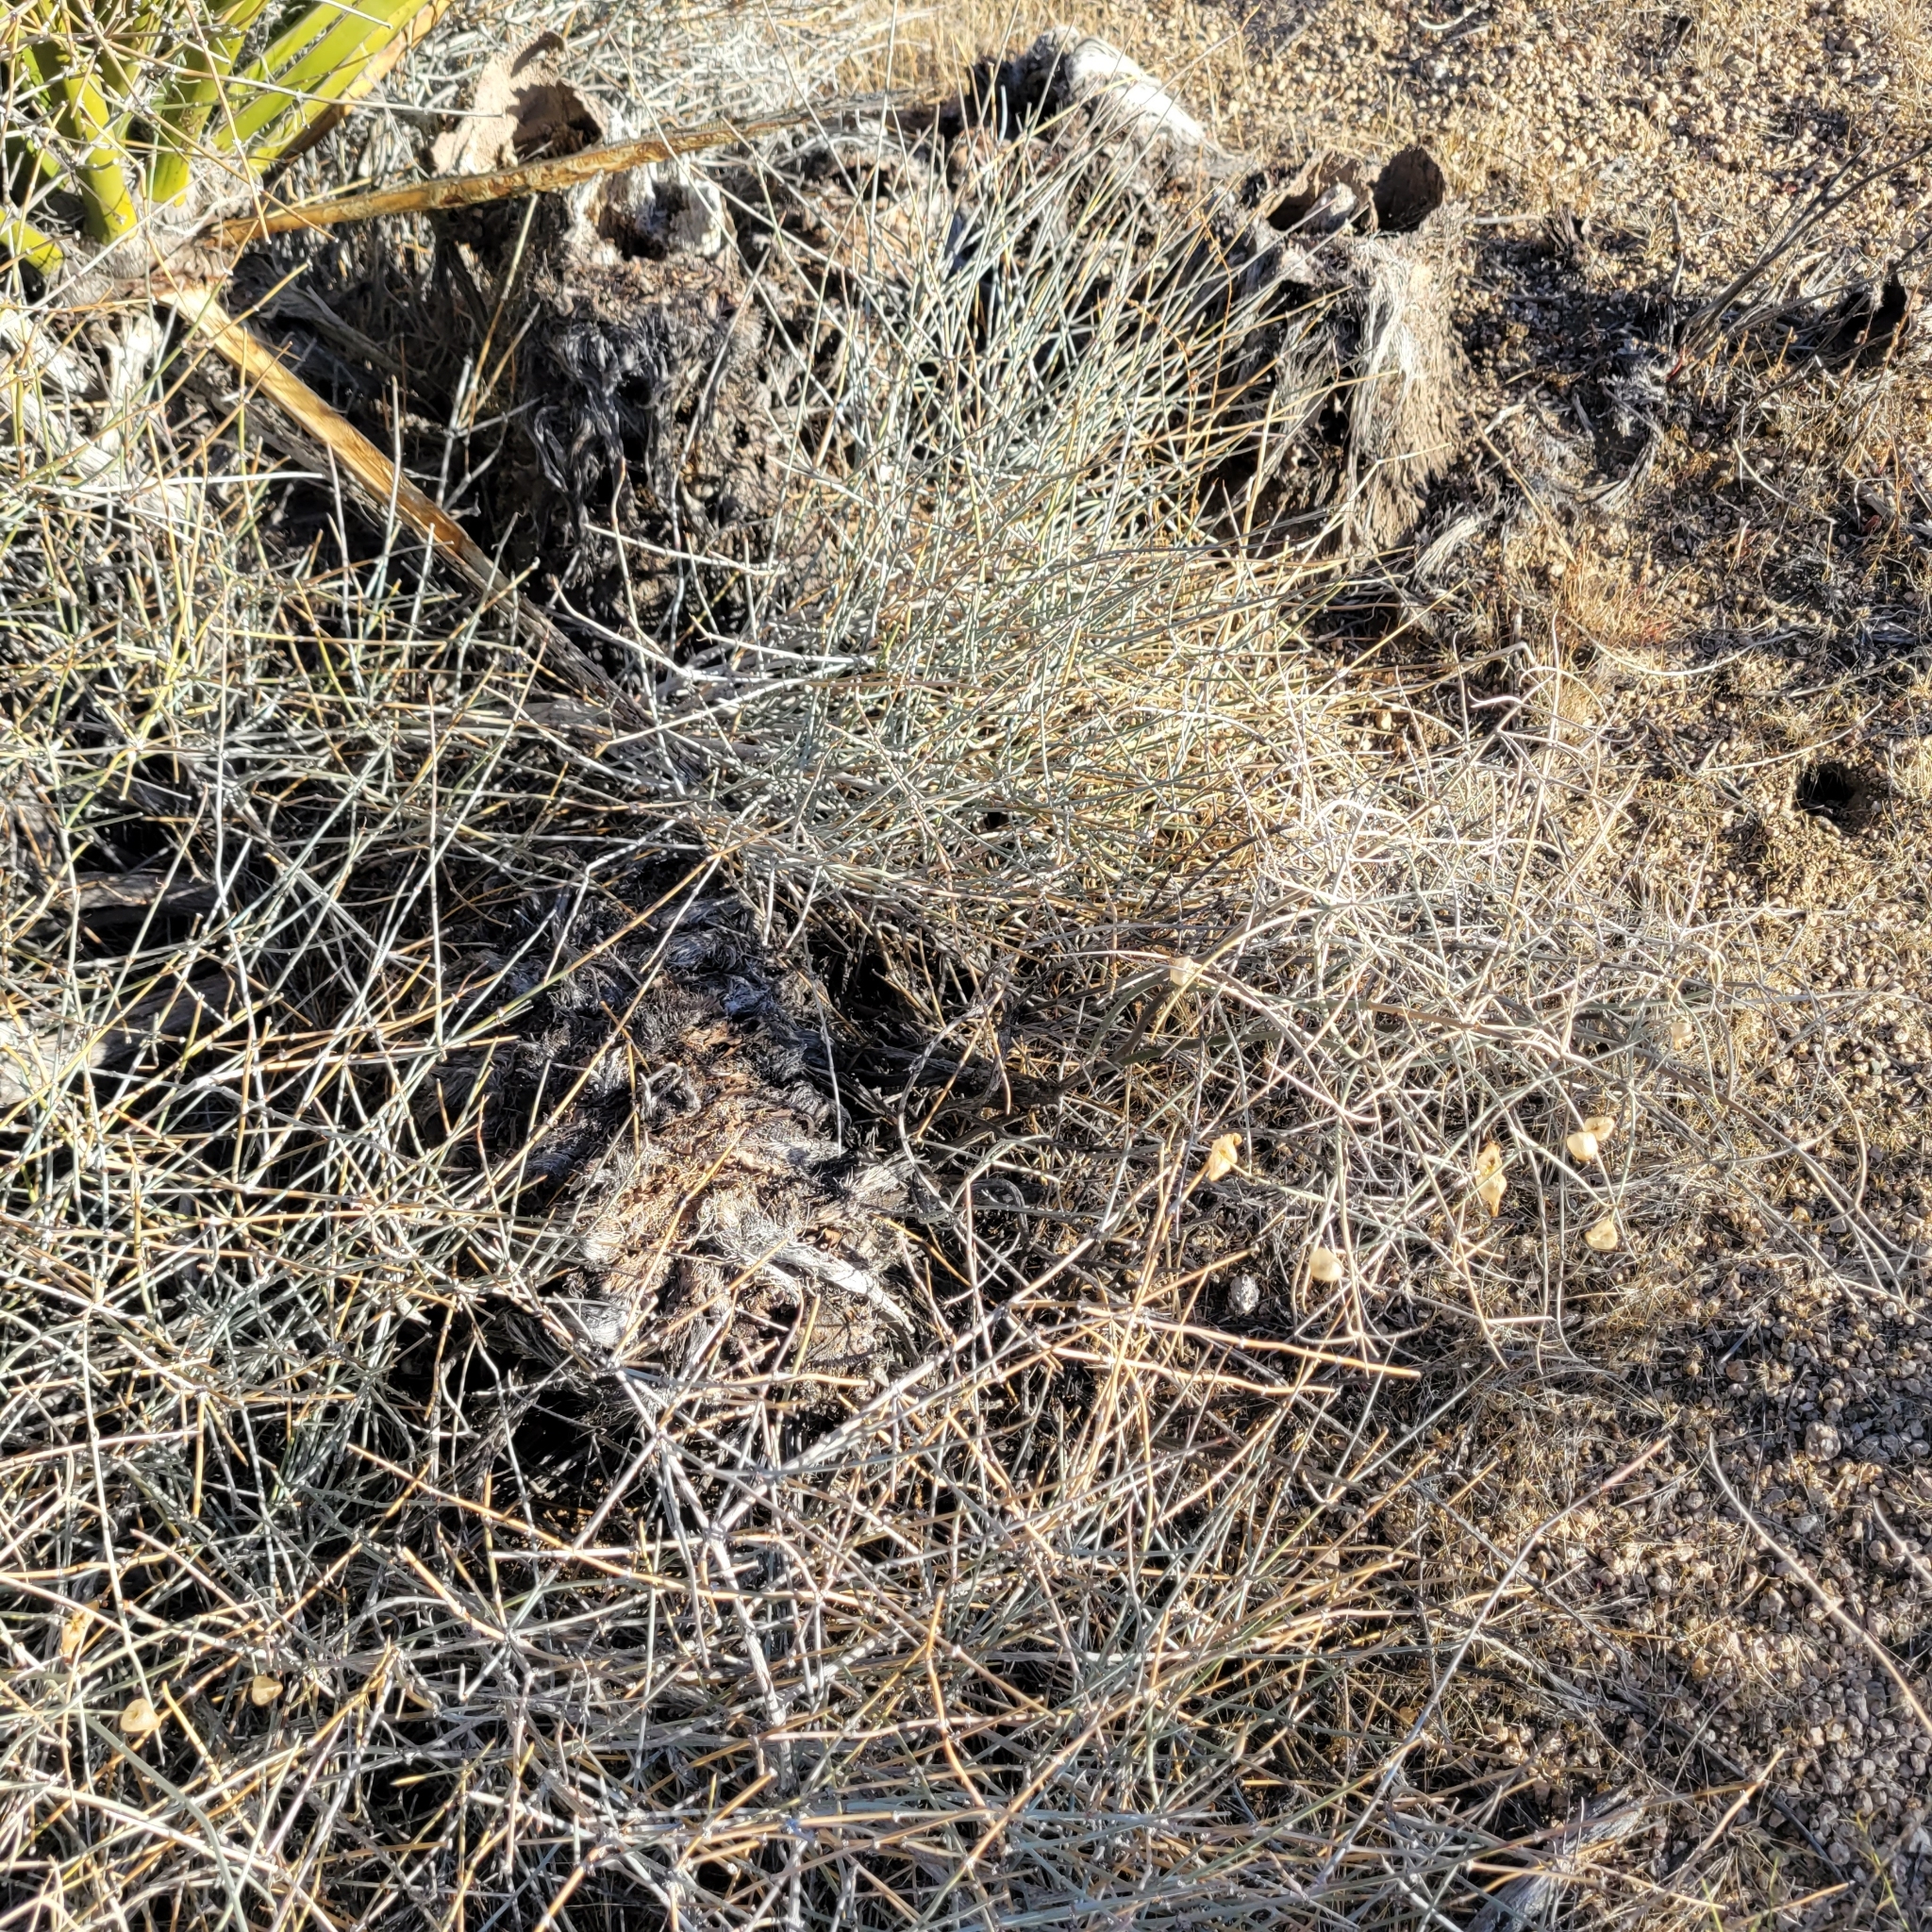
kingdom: Plantae
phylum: Tracheophyta
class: Magnoliopsida
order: Lamiales
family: Lamiaceae
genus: Scutellaria
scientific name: Scutellaria mexicana
